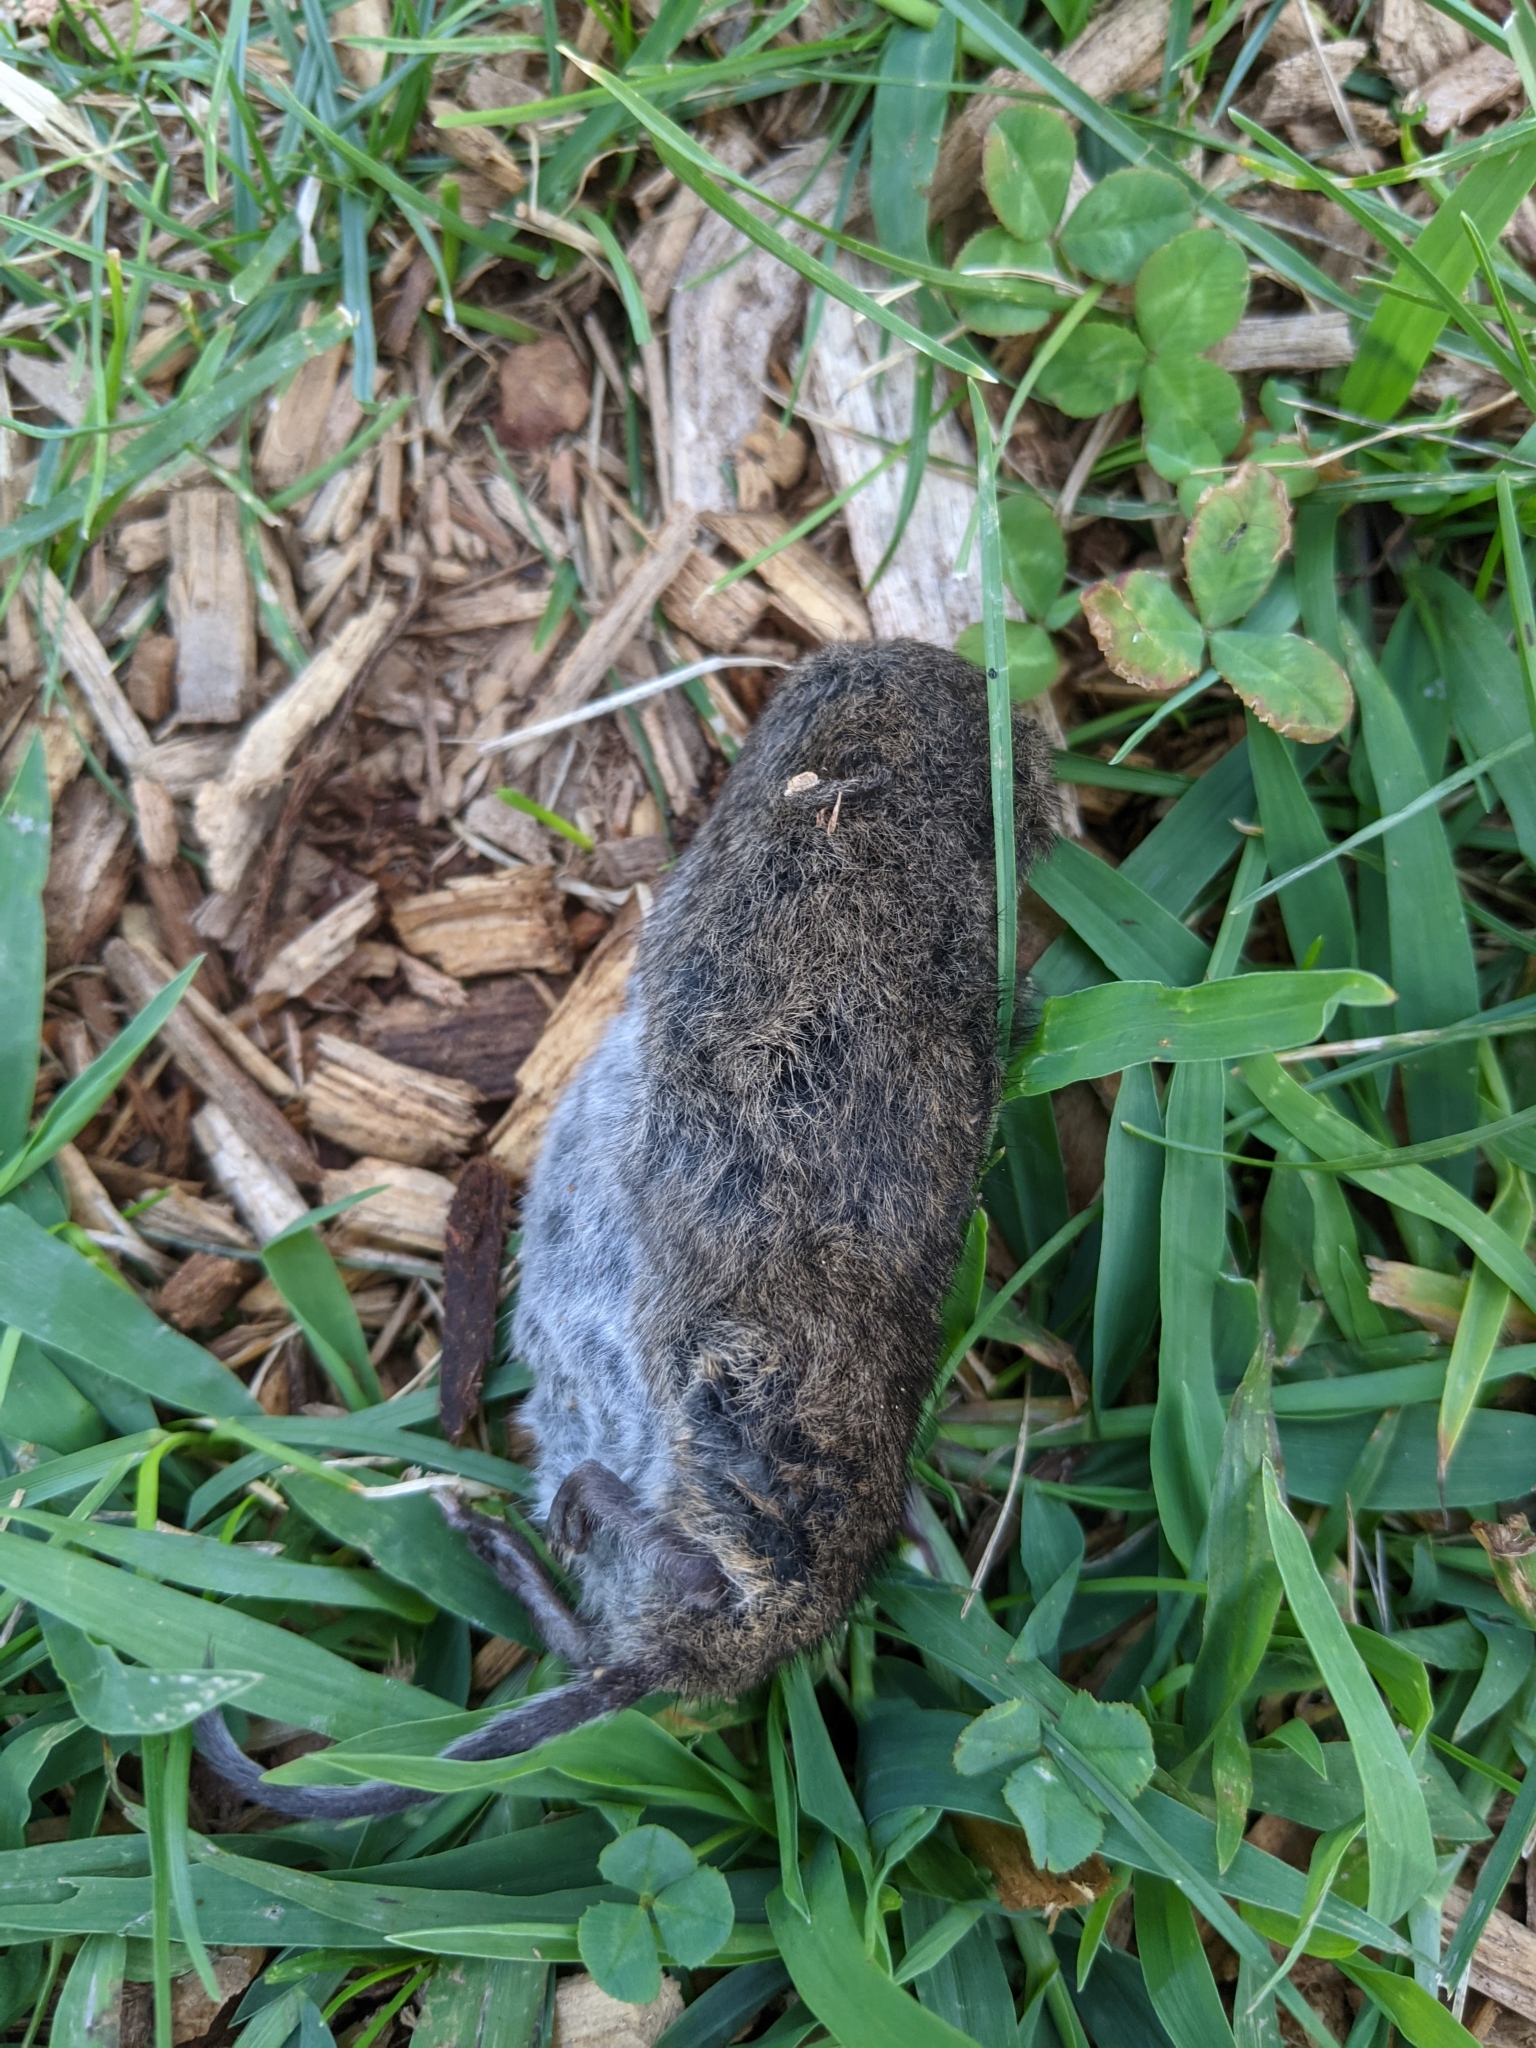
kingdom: Animalia
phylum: Chordata
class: Mammalia
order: Rodentia
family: Cricetidae
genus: Microtus
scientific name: Microtus pennsylvanicus
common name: Meadow vole
